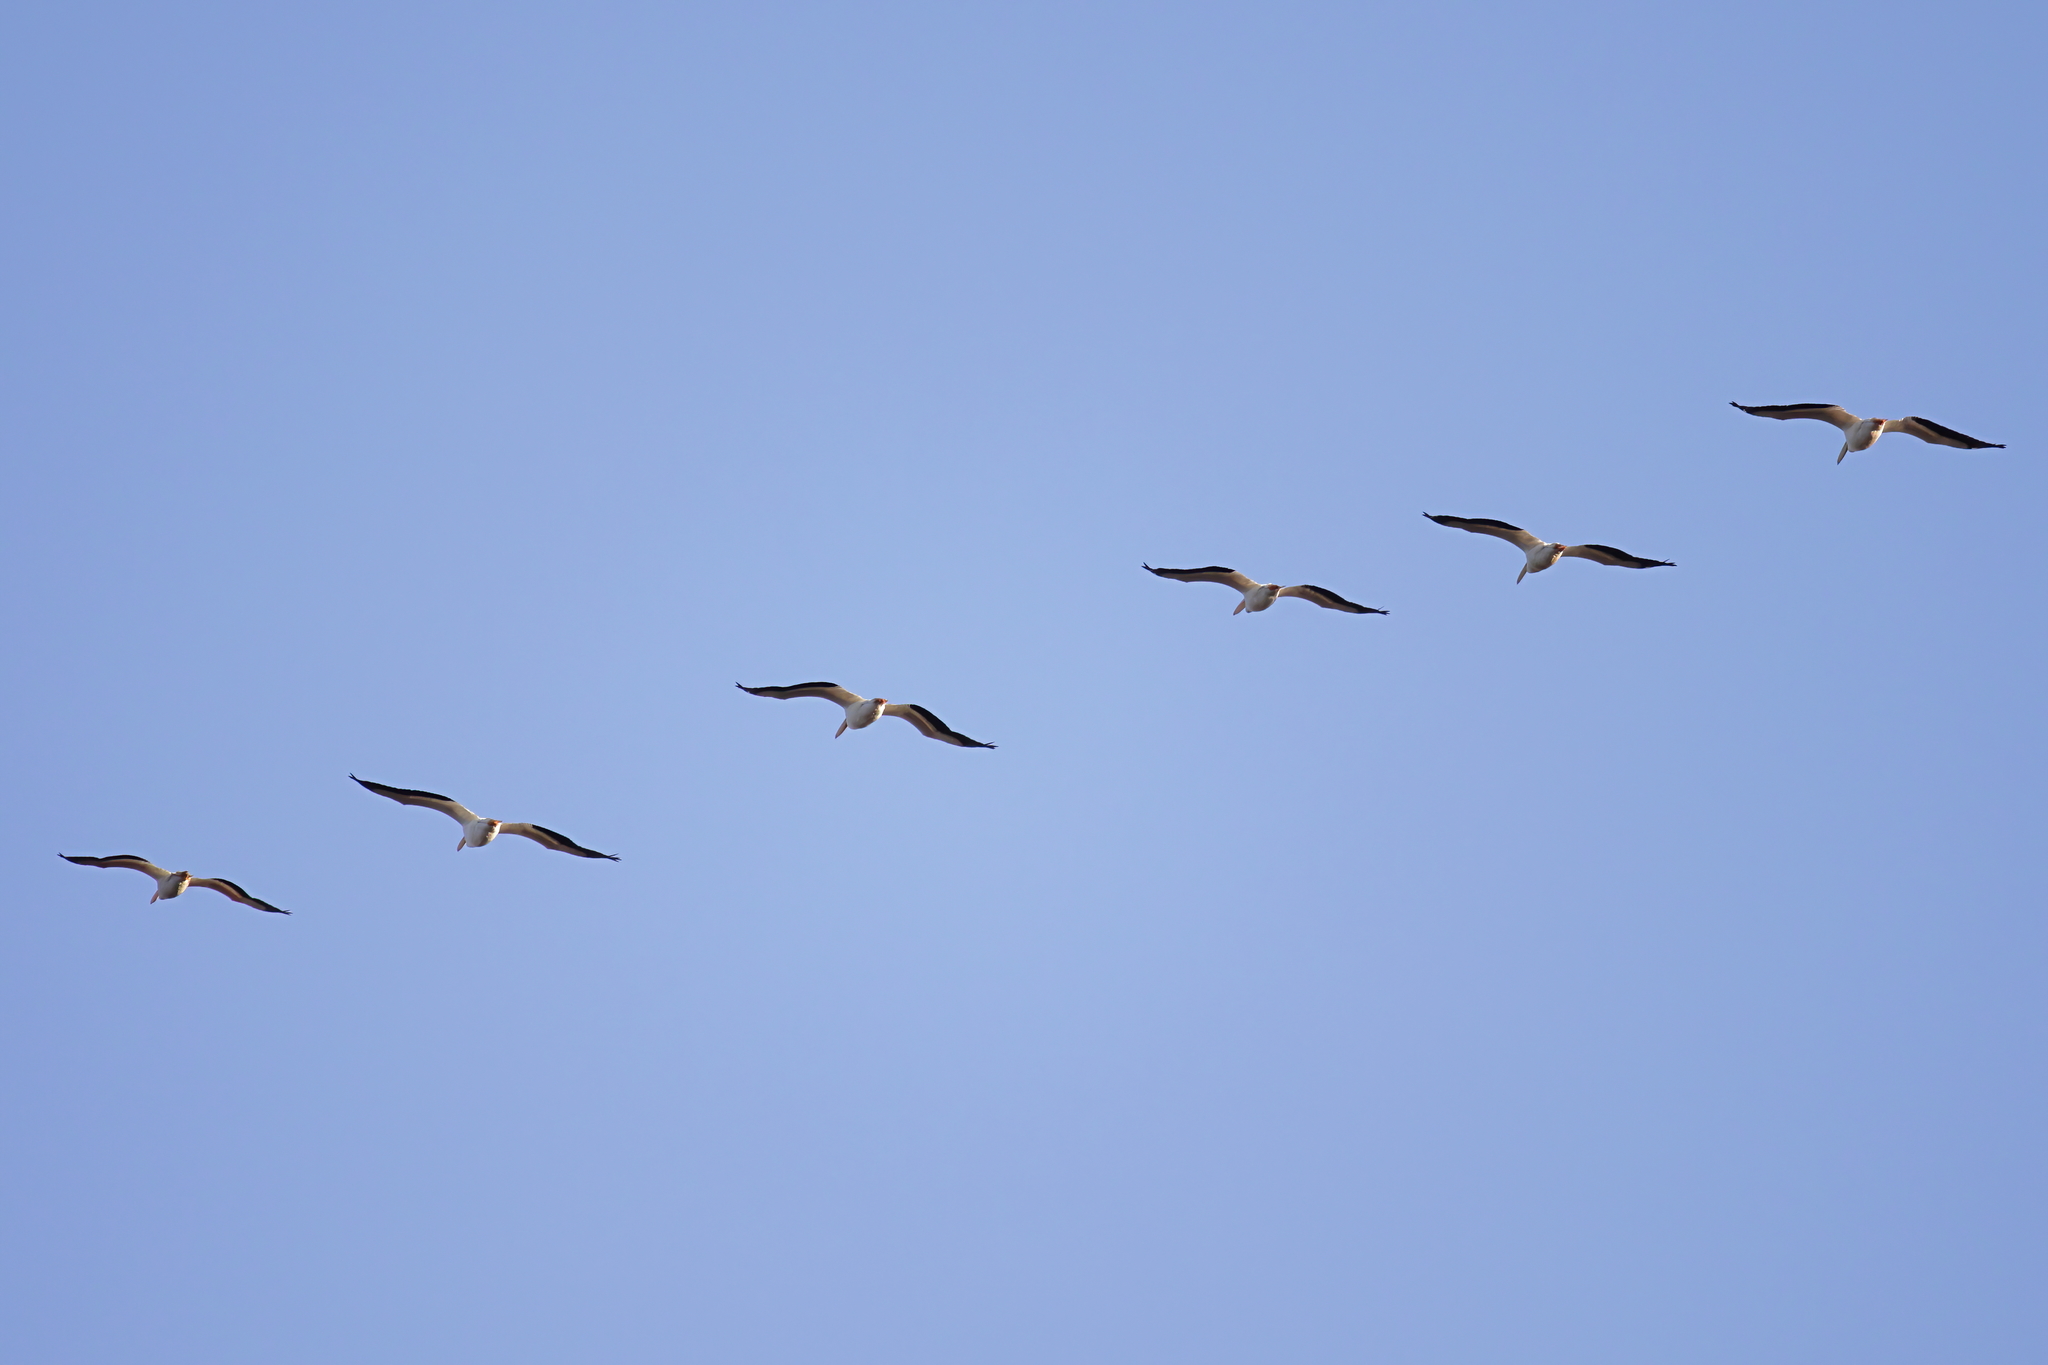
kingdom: Animalia
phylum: Chordata
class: Aves
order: Pelecaniformes
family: Pelecanidae
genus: Pelecanus
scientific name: Pelecanus erythrorhynchos
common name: American white pelican
